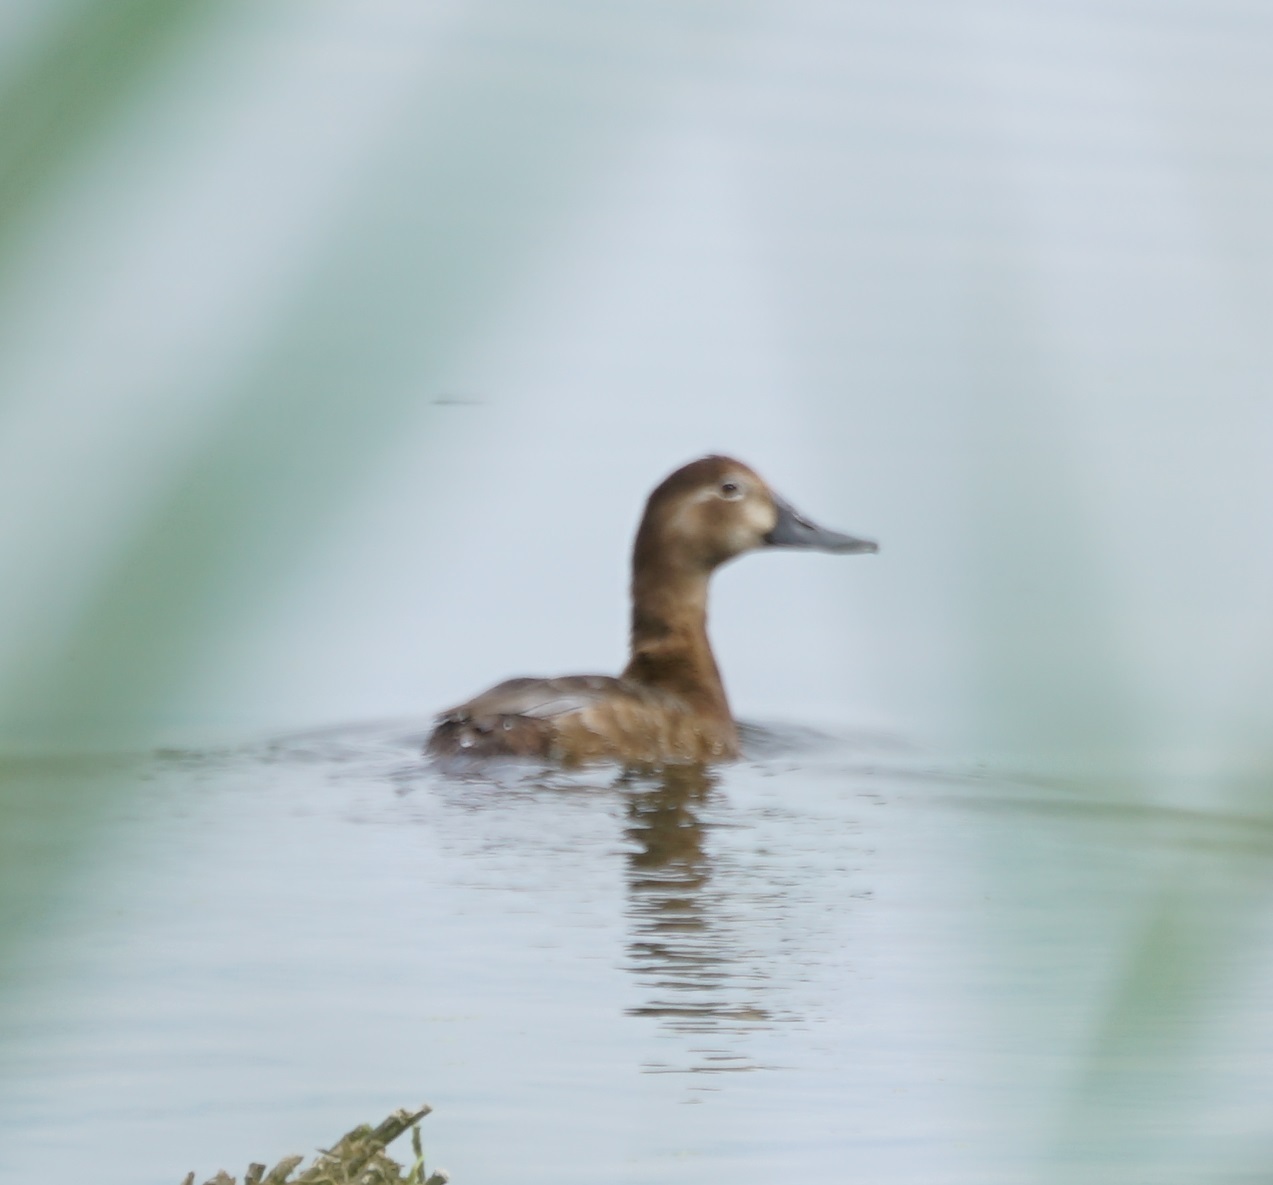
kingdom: Animalia
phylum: Chordata
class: Aves
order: Anseriformes
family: Anatidae
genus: Aythya
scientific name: Aythya ferina
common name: Common pochard
